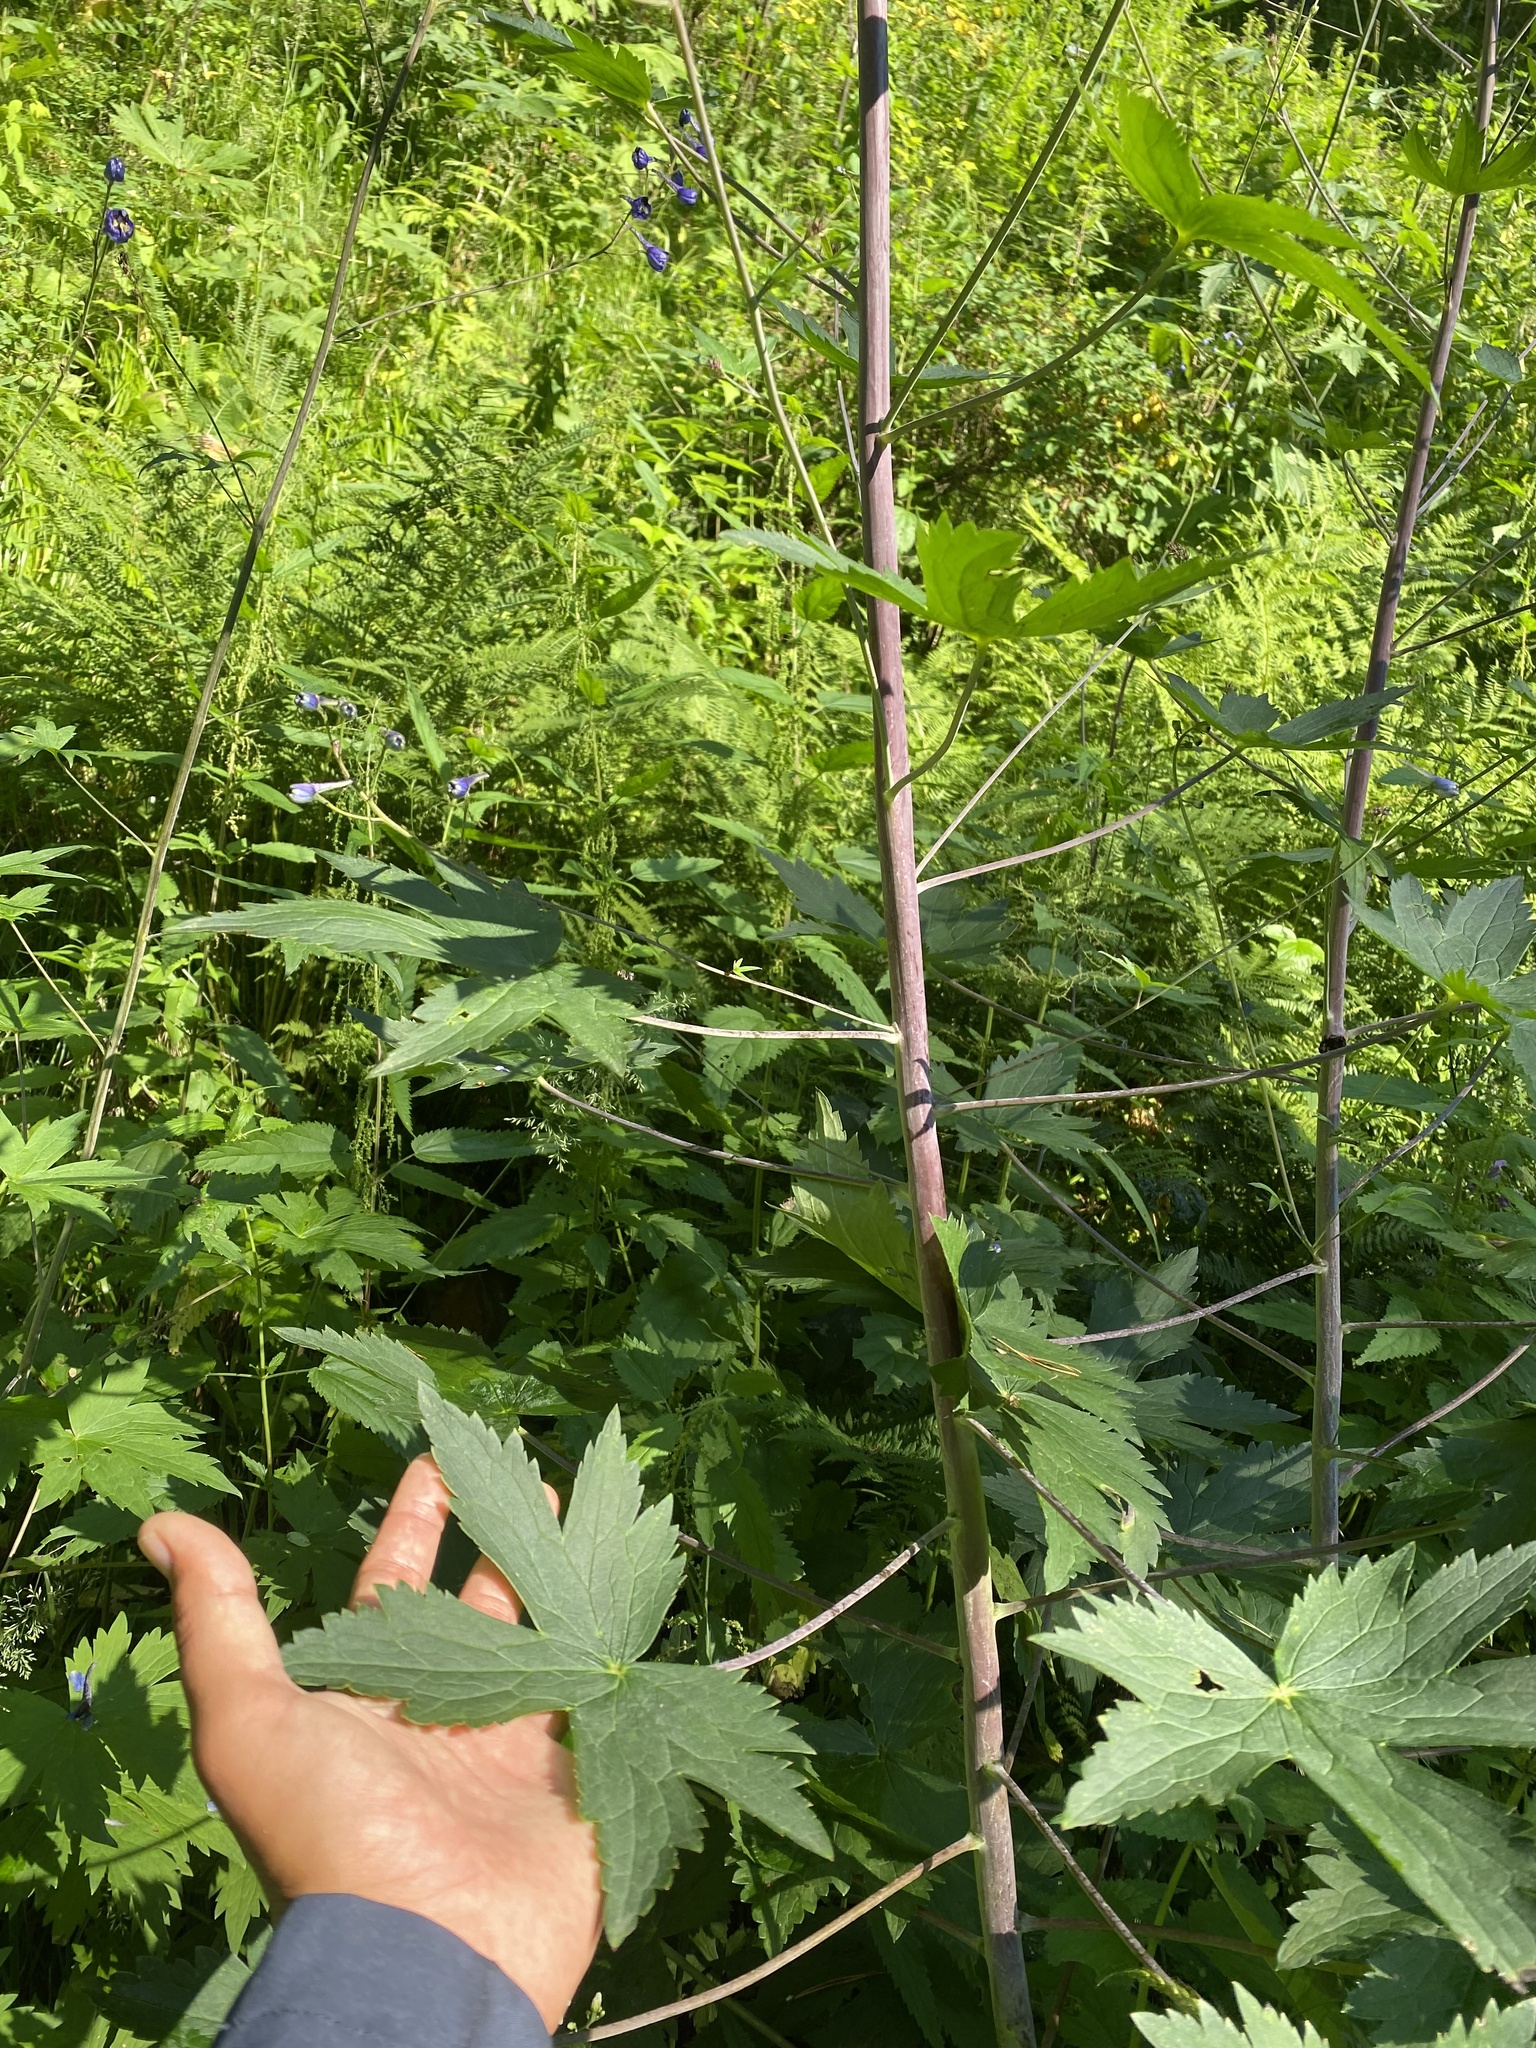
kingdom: Plantae
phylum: Tracheophyta
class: Magnoliopsida
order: Ranunculales
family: Ranunculaceae
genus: Delphinium
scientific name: Delphinium elatum
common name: Candle larkspur
